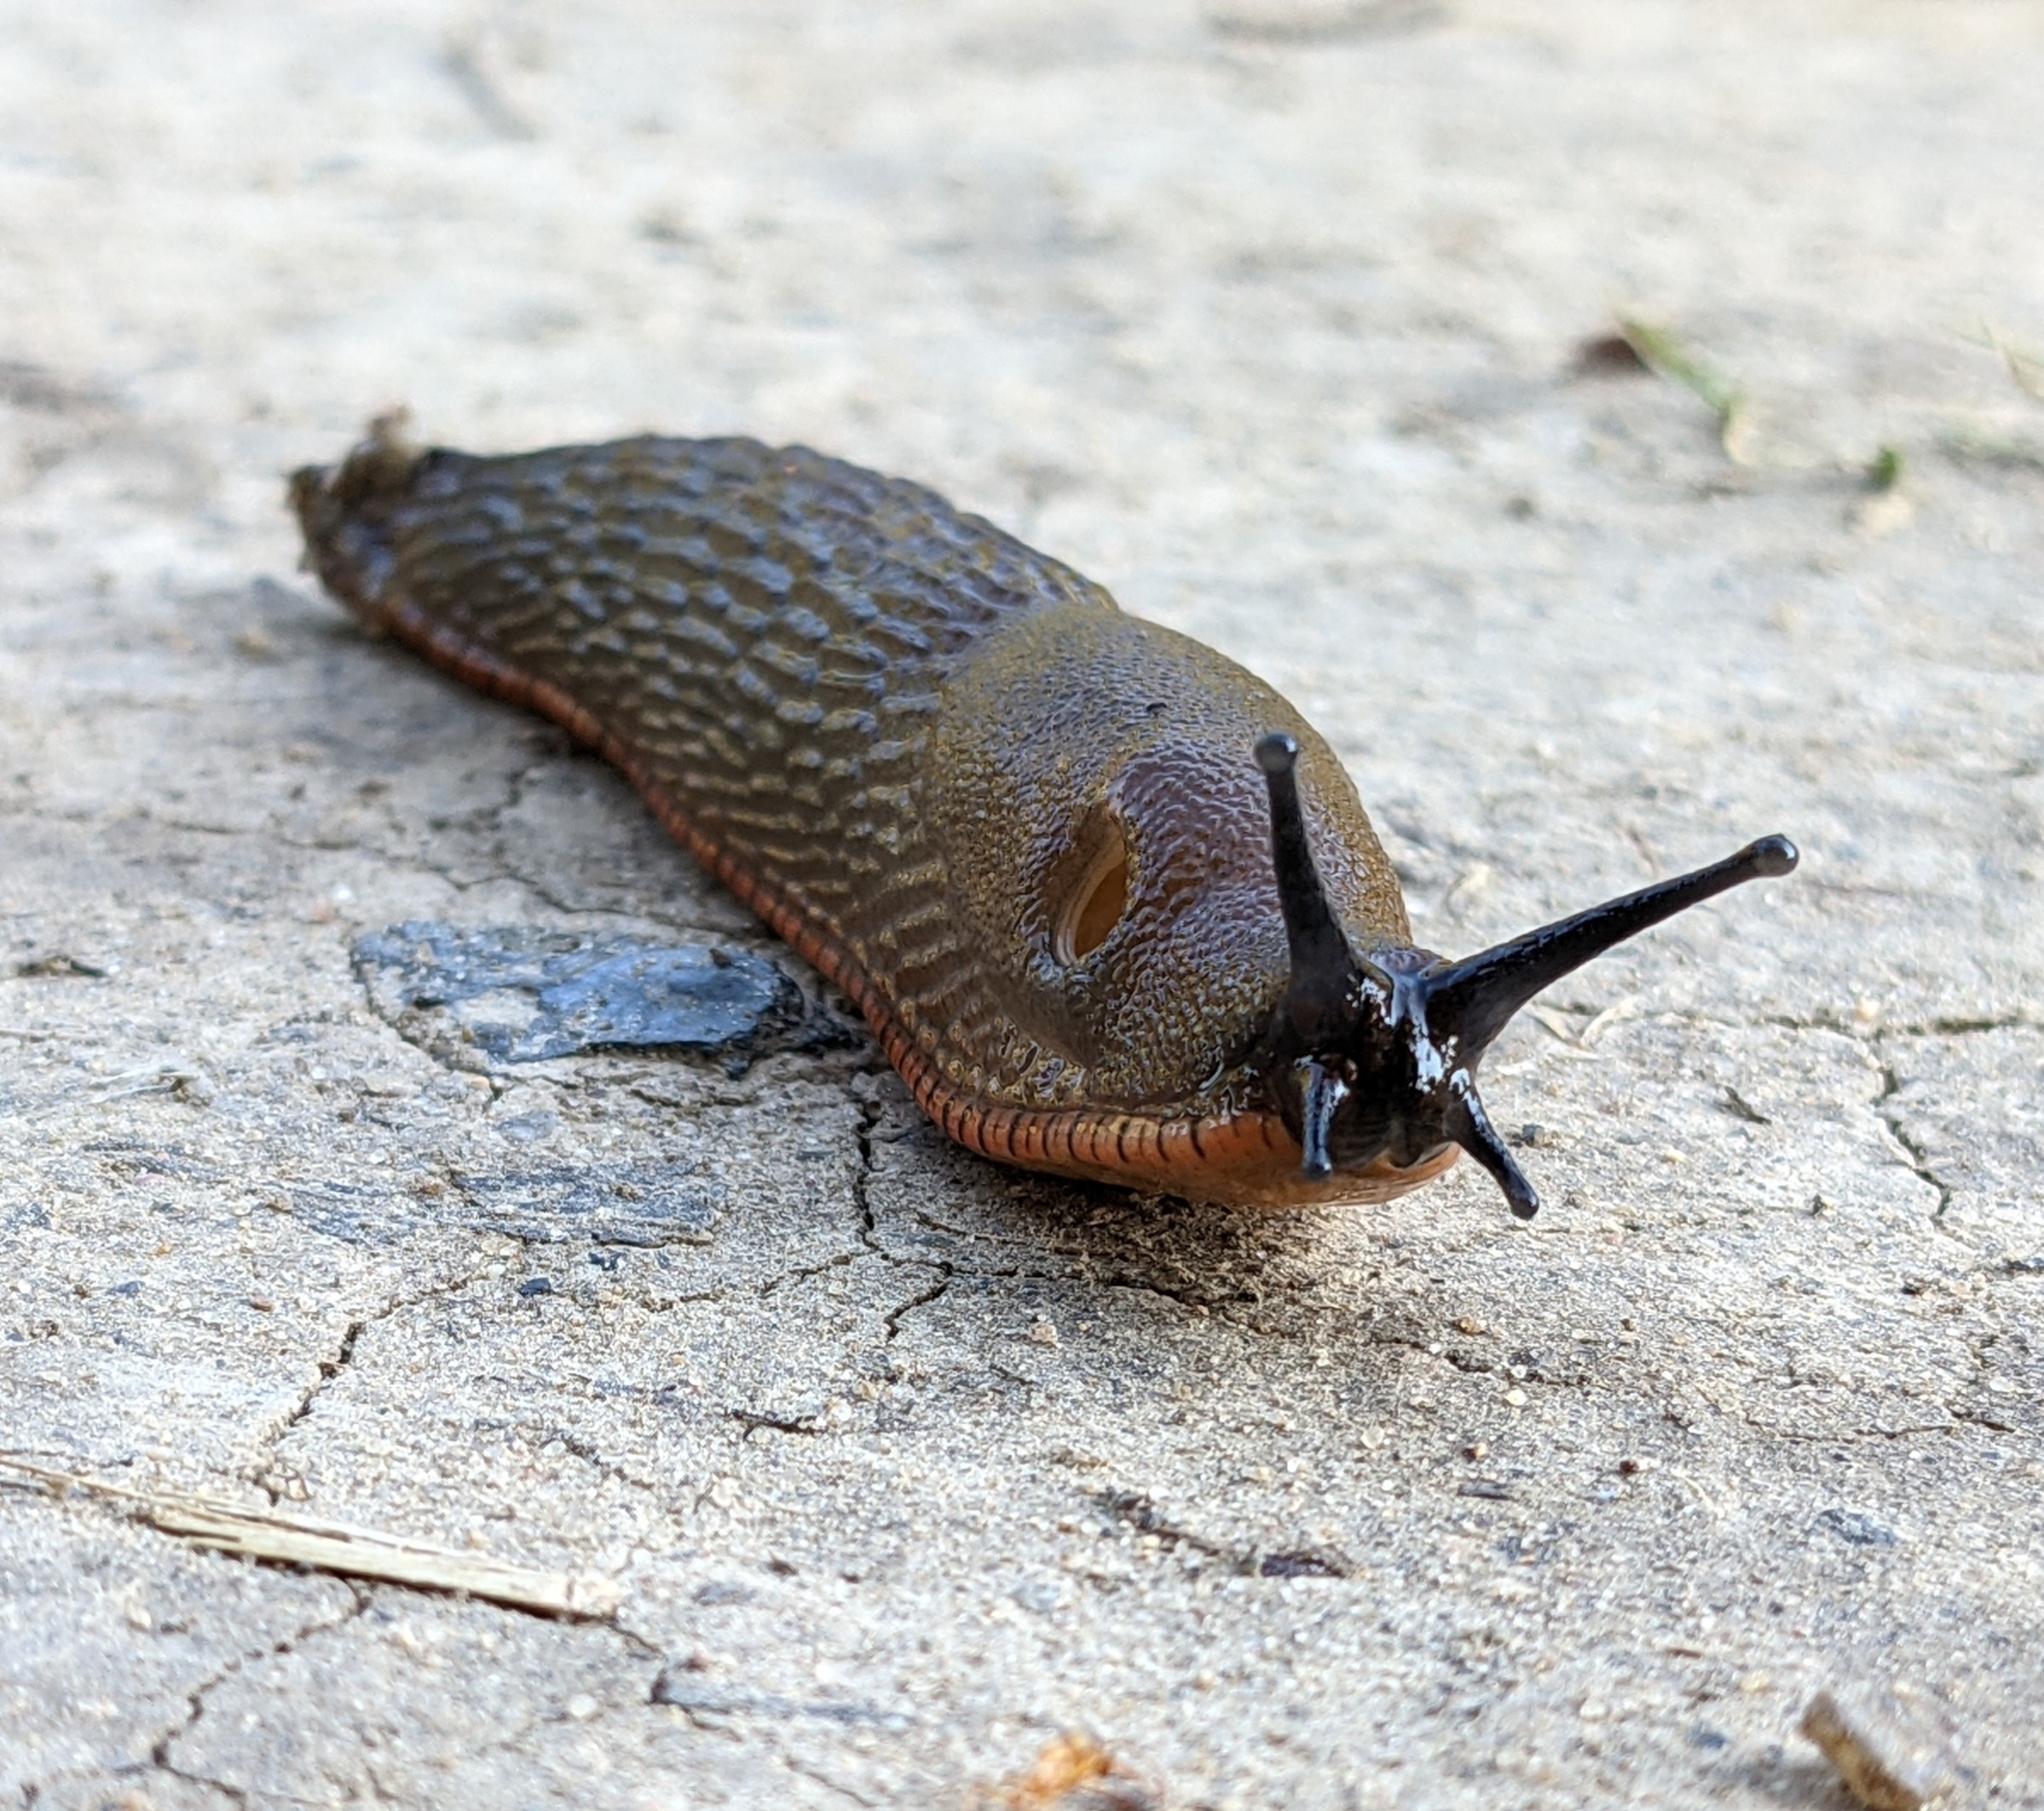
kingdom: Animalia
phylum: Mollusca
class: Gastropoda
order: Stylommatophora
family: Arionidae
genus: Arion
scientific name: Arion
